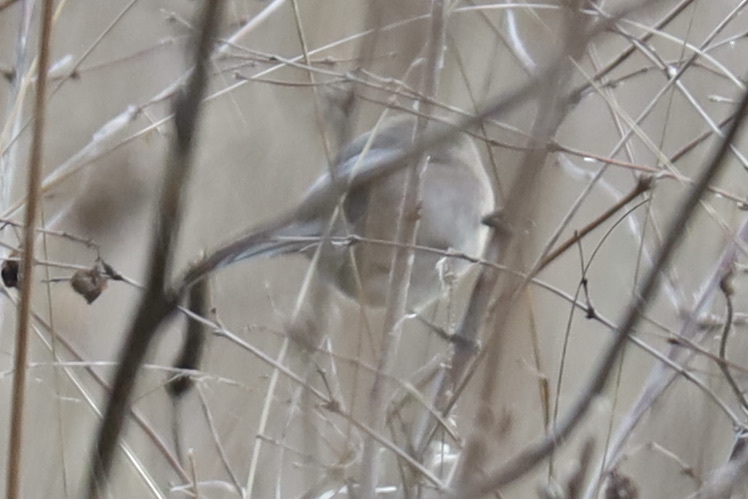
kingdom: Animalia
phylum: Chordata
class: Aves
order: Passeriformes
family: Aegithalidae
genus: Psaltriparus
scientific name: Psaltriparus minimus
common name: American bushtit
